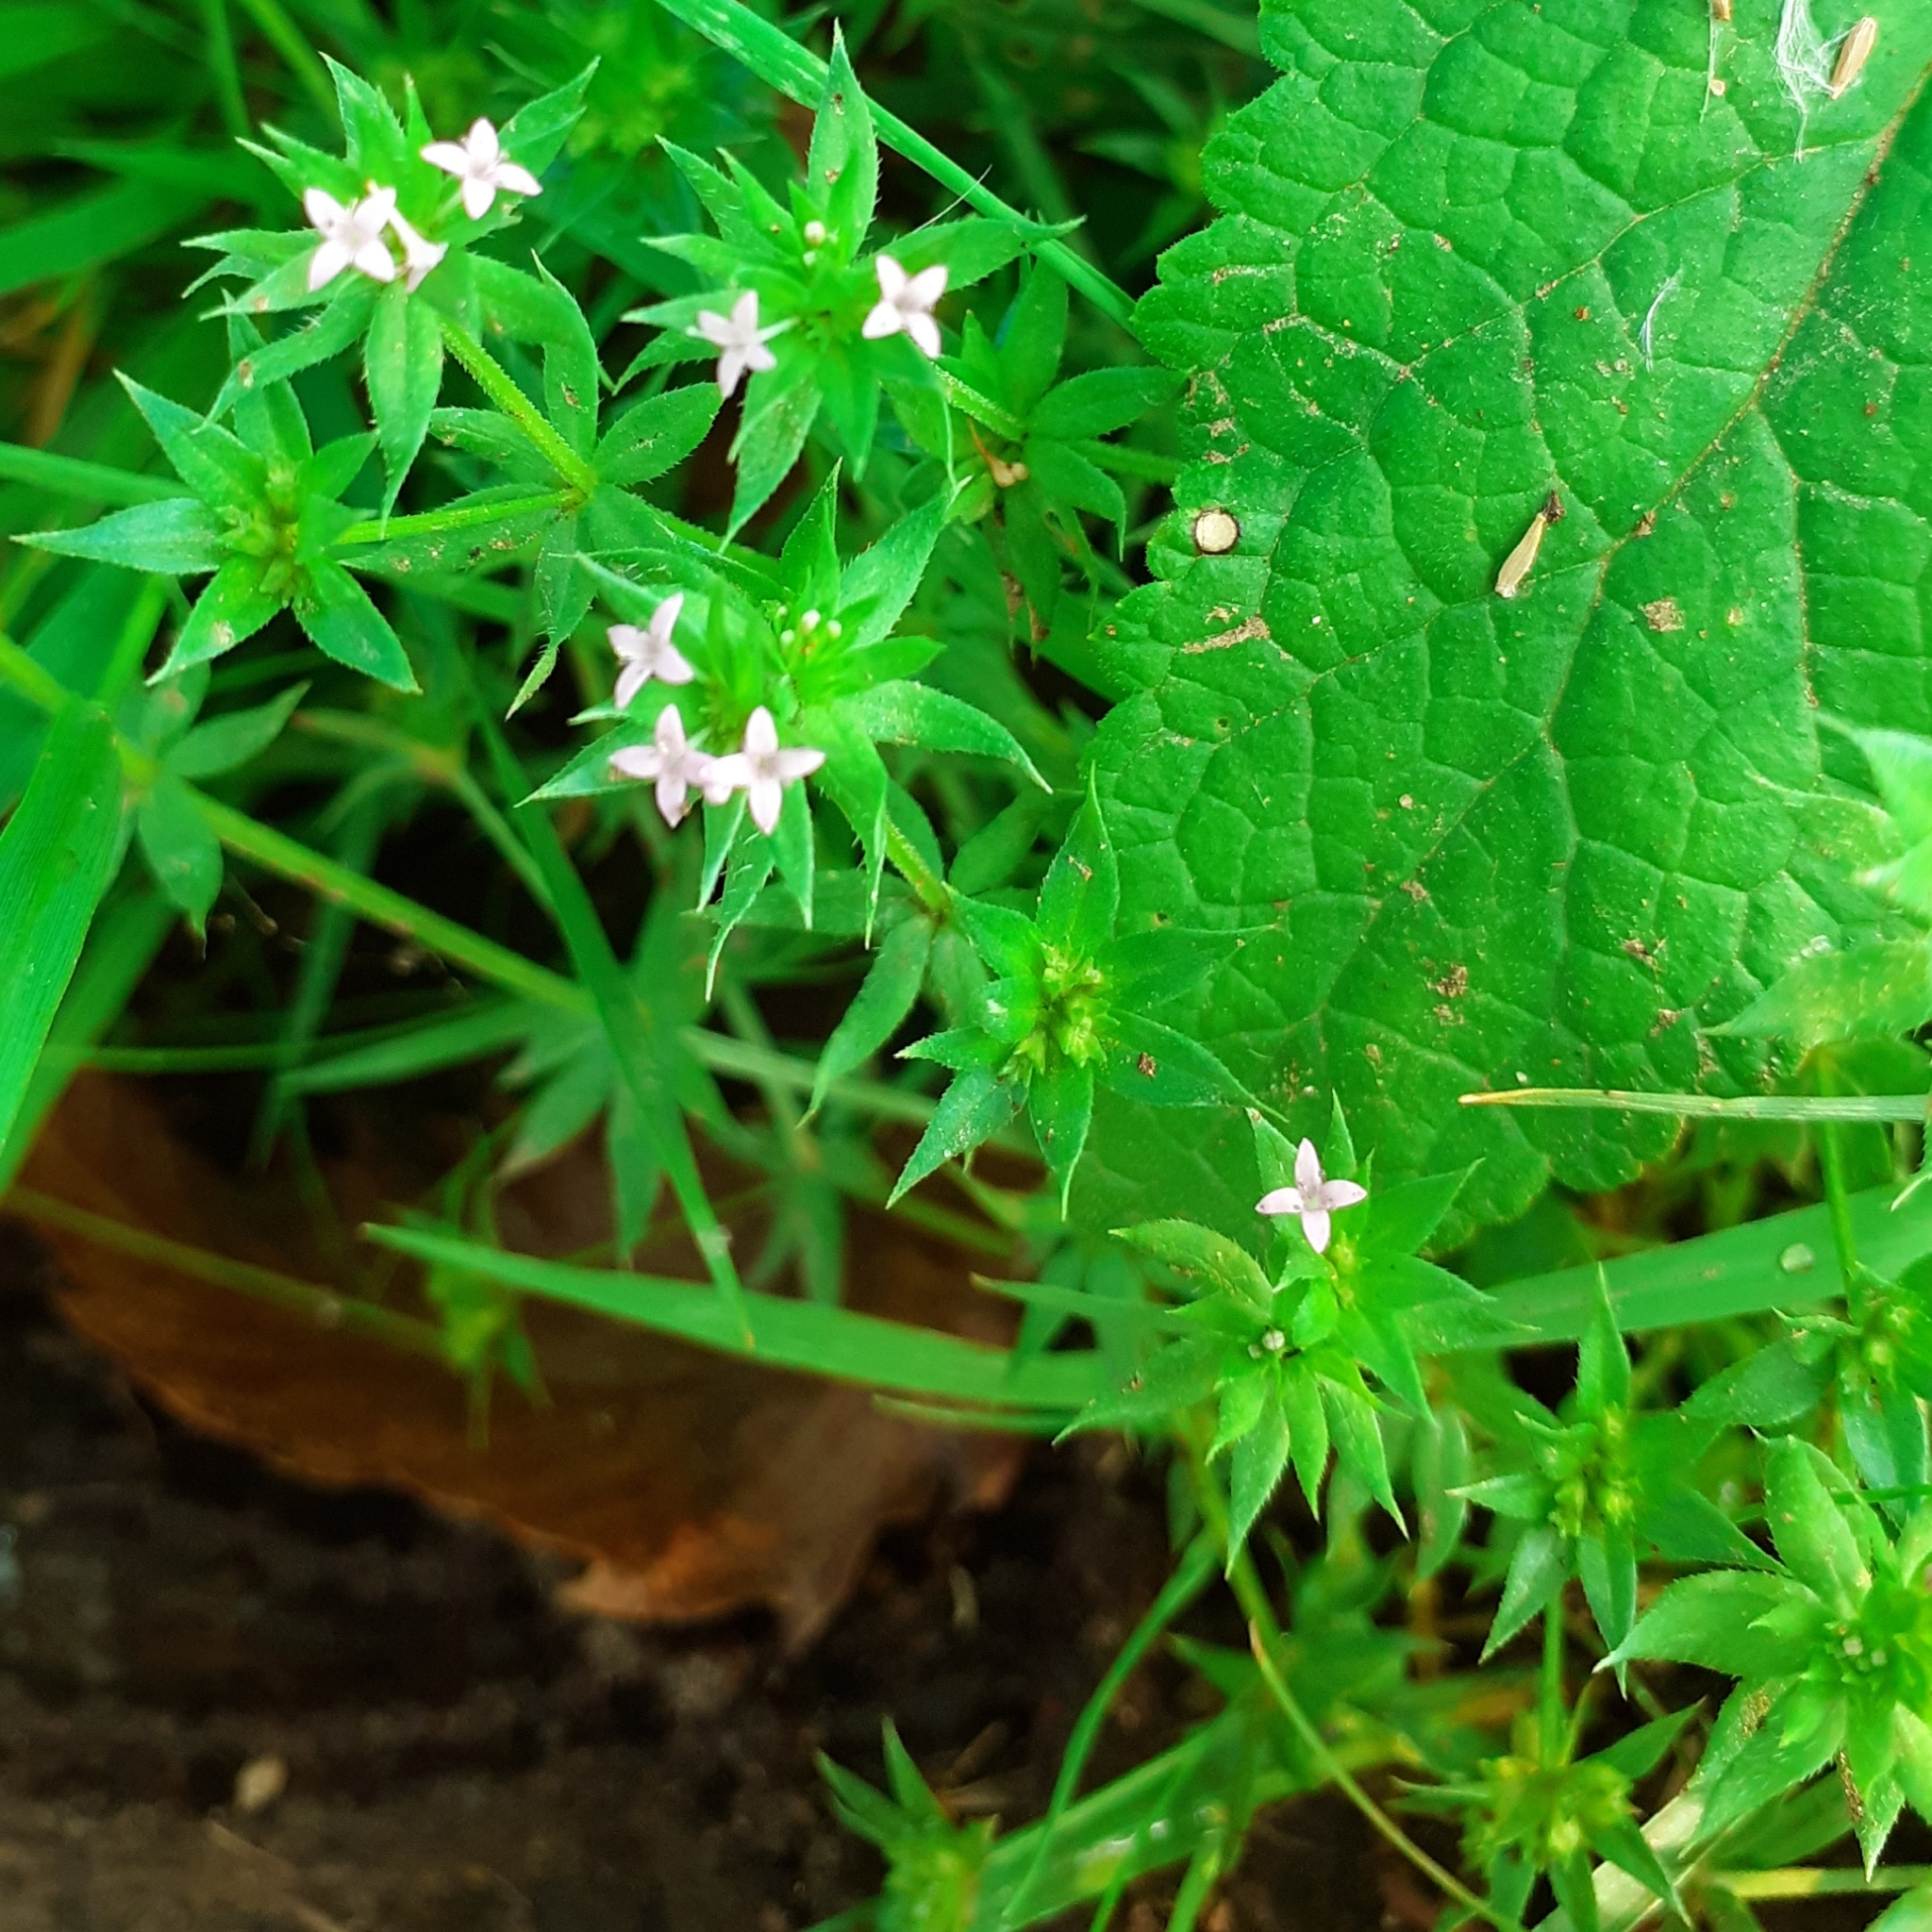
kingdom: Plantae
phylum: Tracheophyta
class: Magnoliopsida
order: Gentianales
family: Rubiaceae
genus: Sherardia
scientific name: Sherardia arvensis
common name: Field madder
